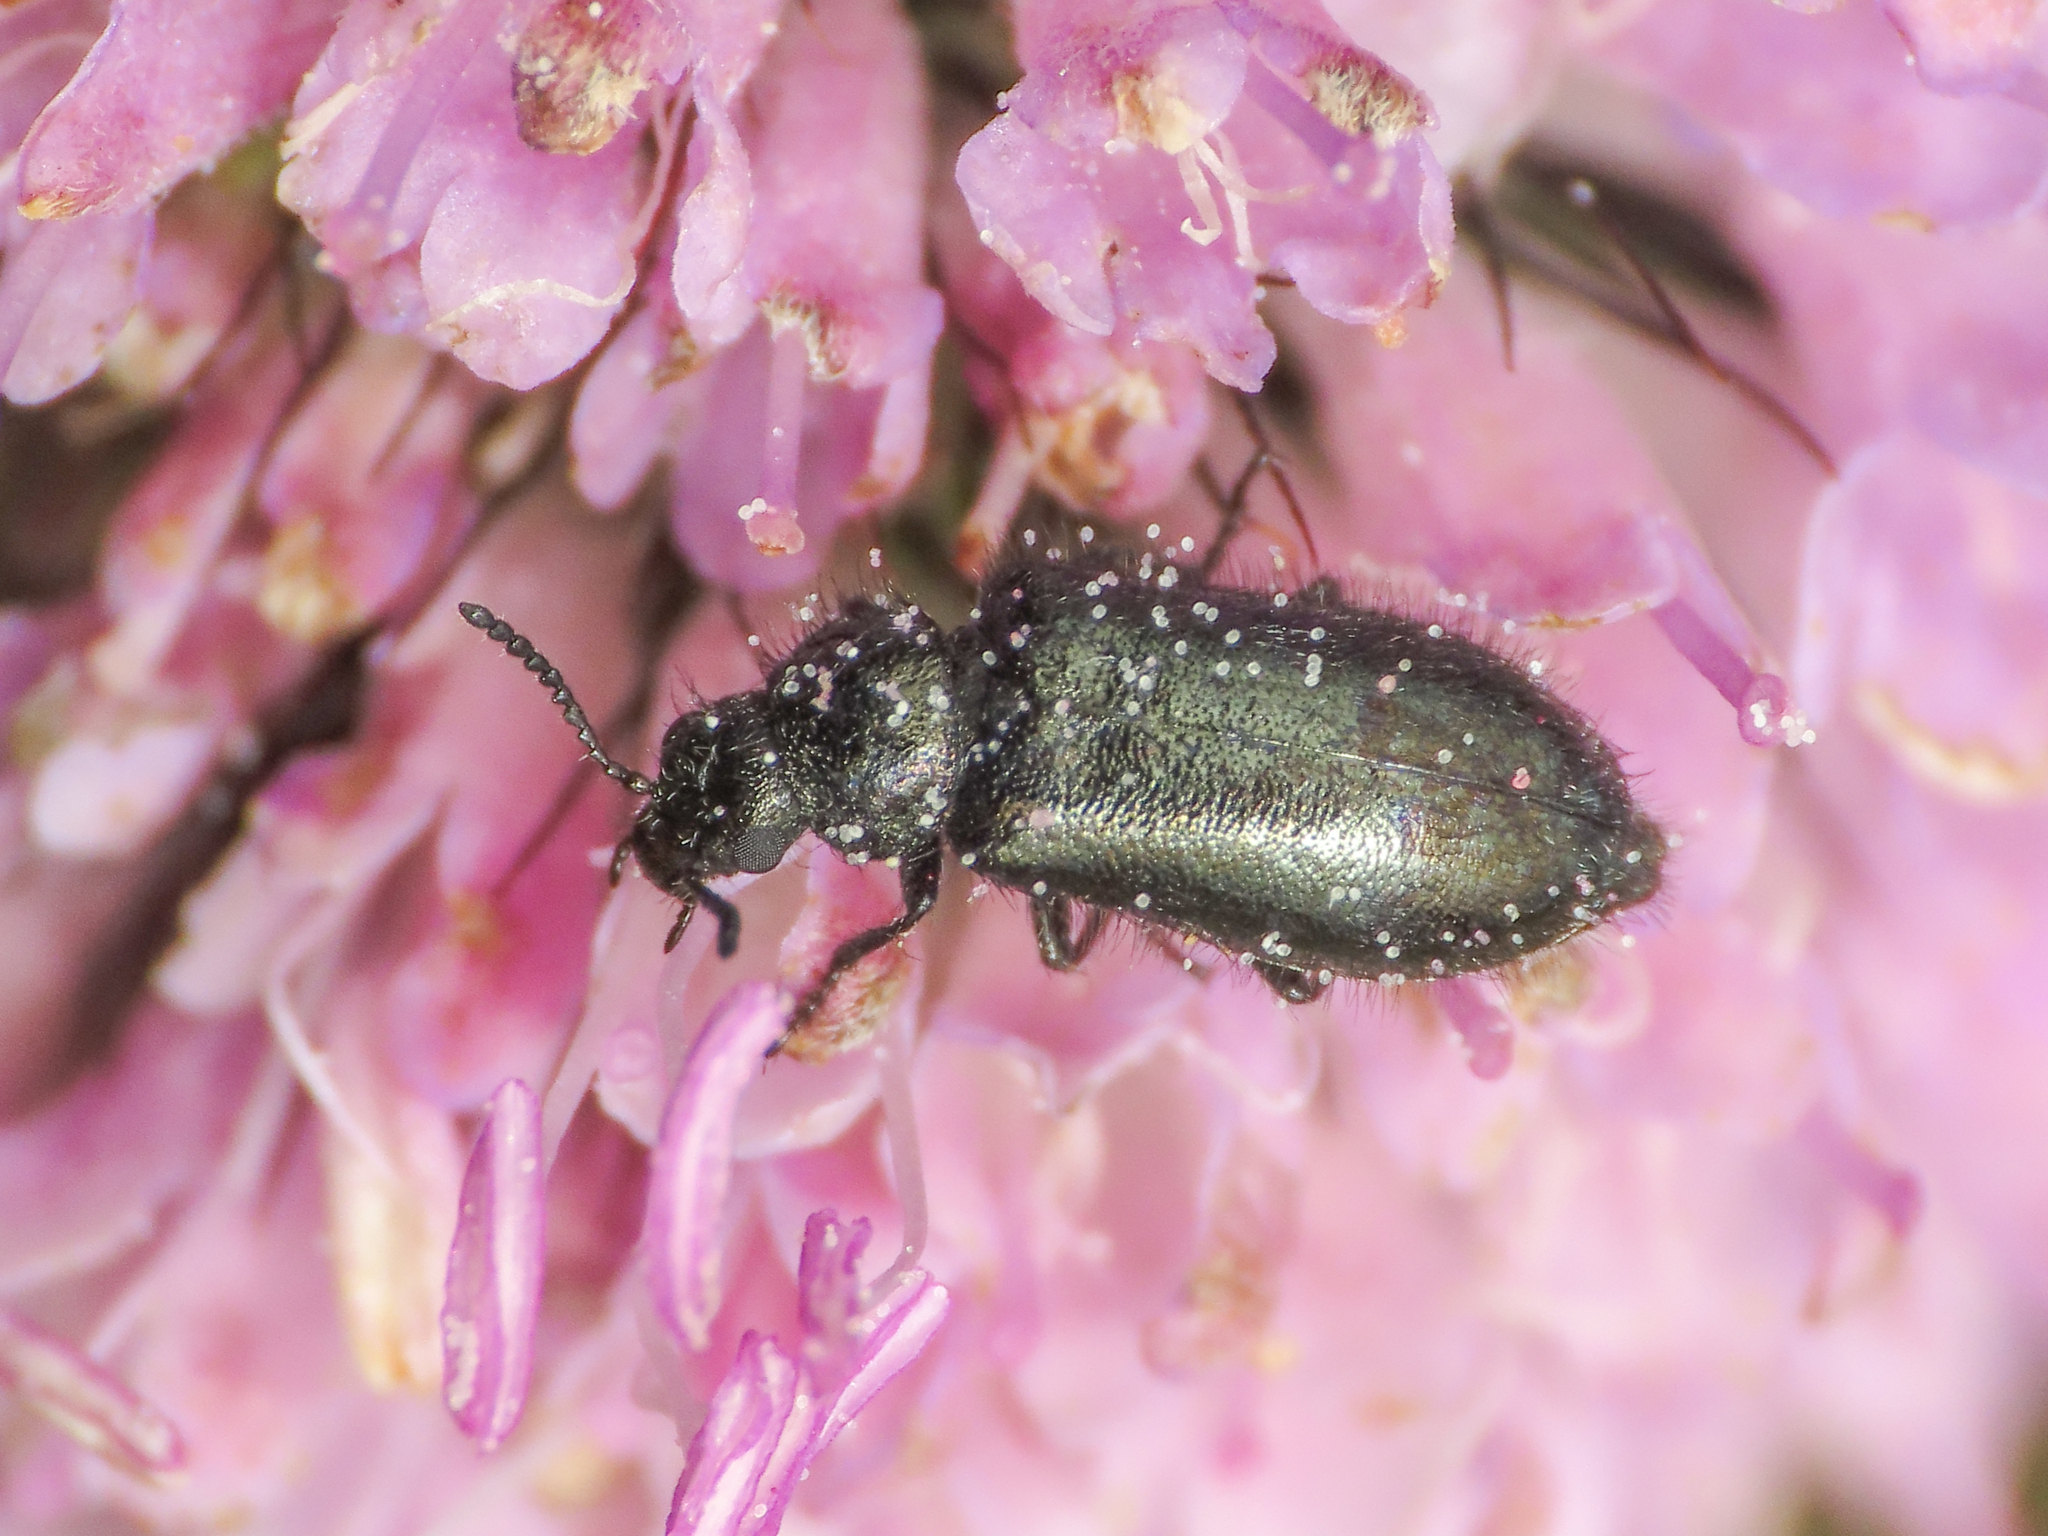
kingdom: Animalia
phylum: Arthropoda
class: Insecta
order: Coleoptera
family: Melyridae
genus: Dasytes
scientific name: Dasytes alpigradus
